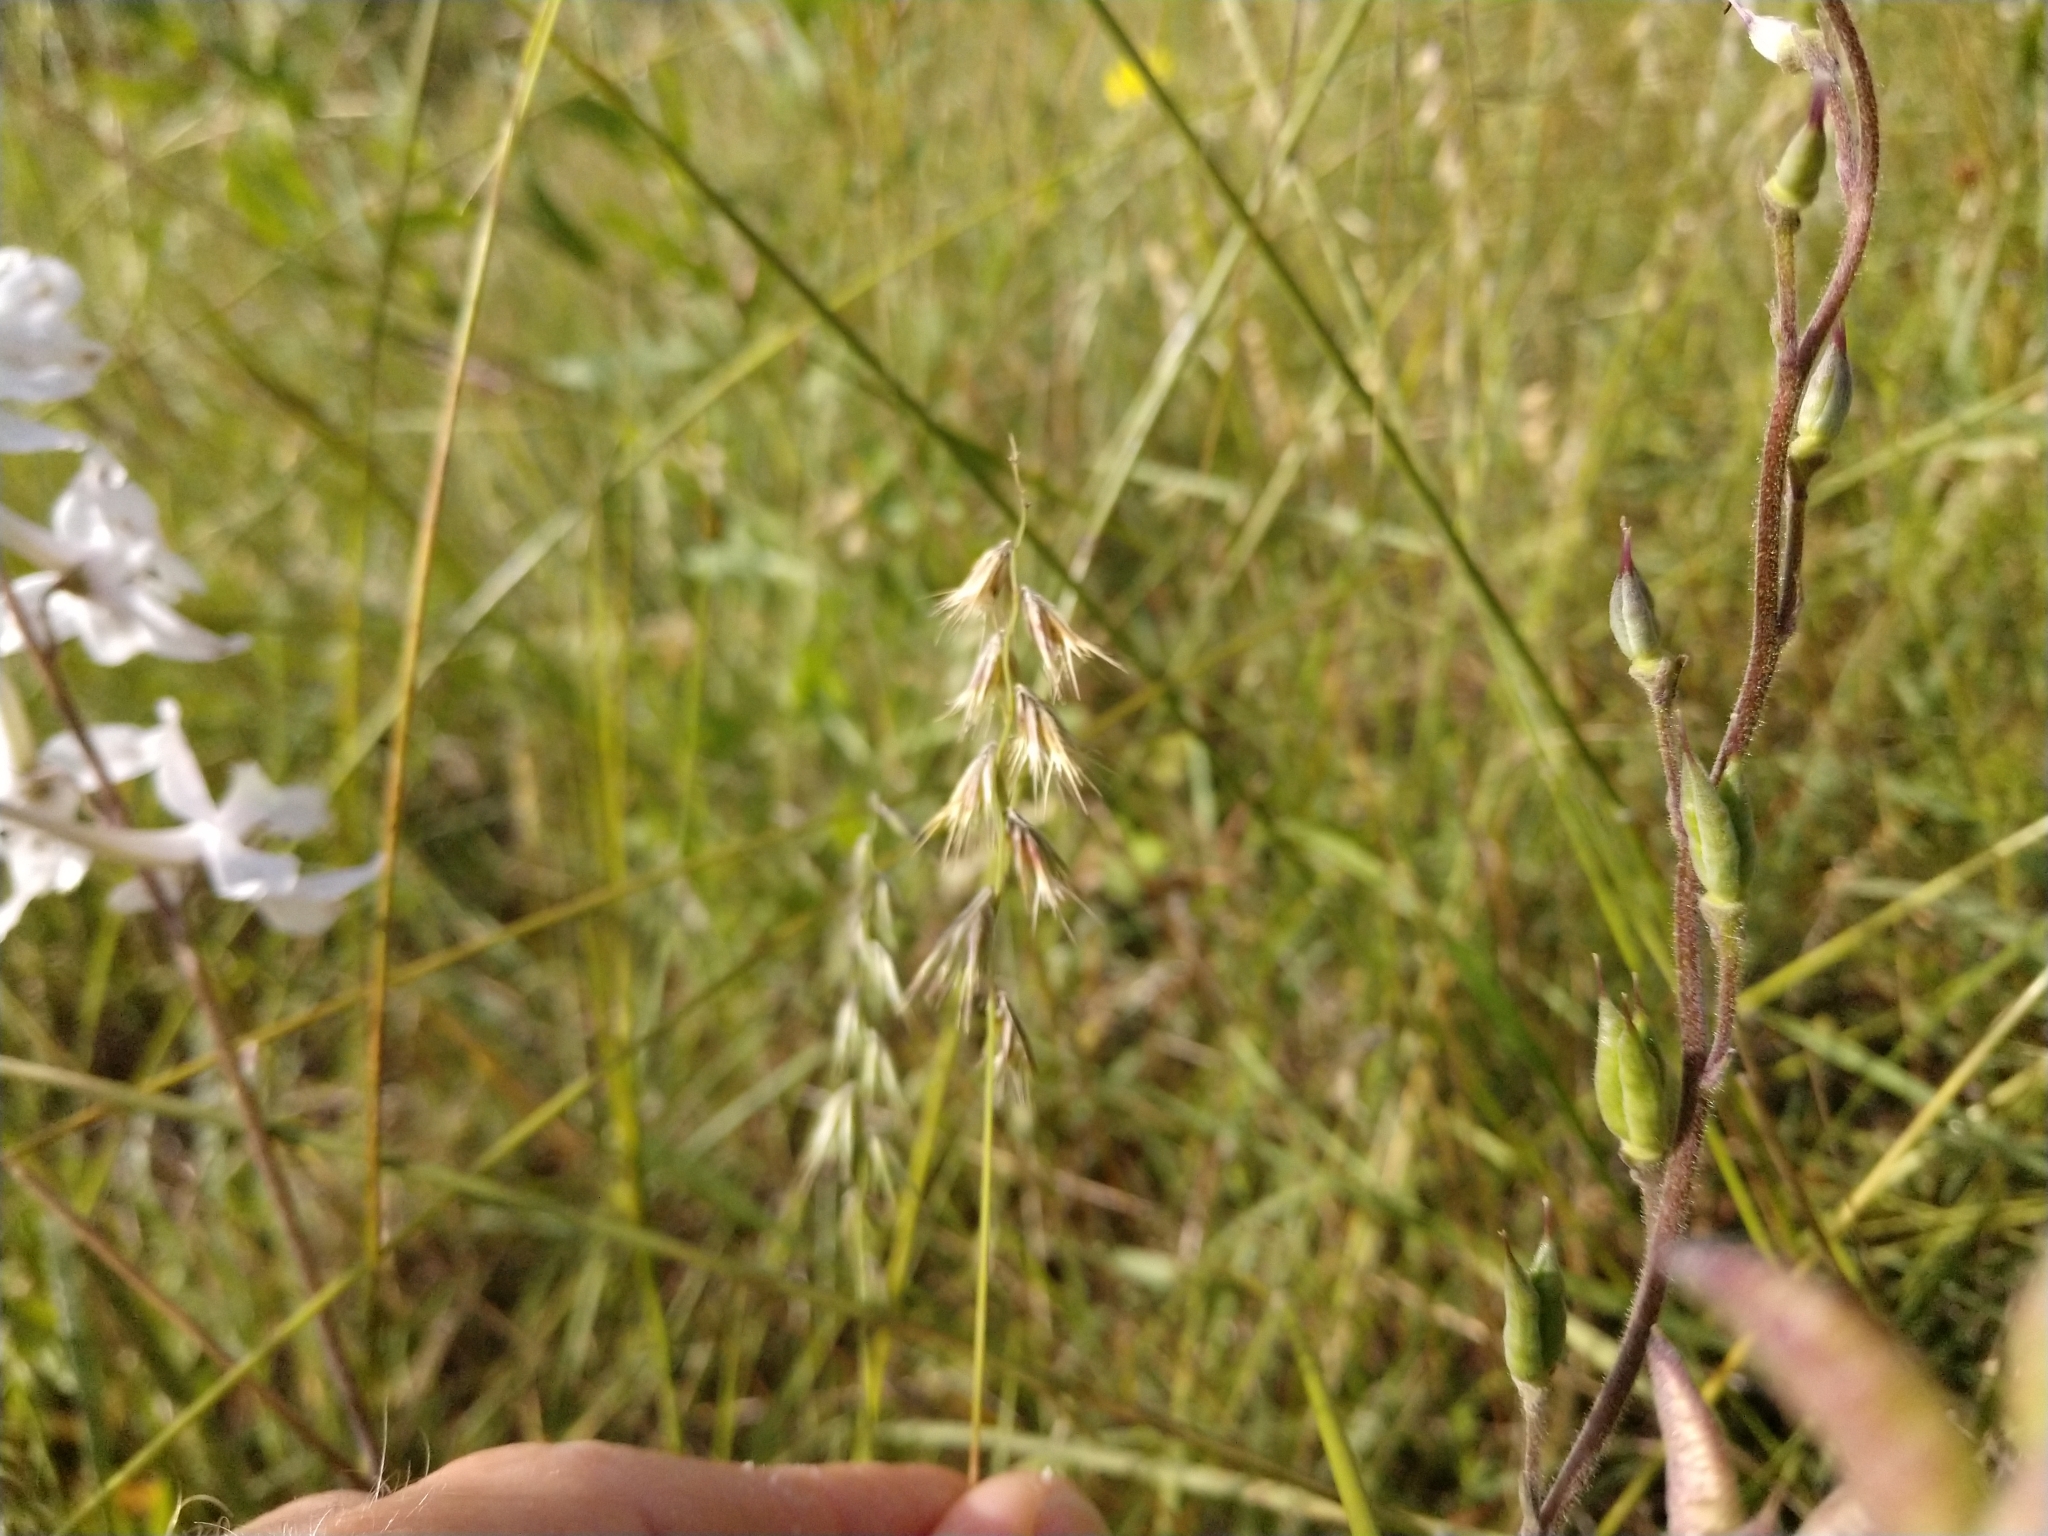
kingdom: Plantae
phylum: Tracheophyta
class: Liliopsida
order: Poales
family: Poaceae
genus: Bouteloua
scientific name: Bouteloua rigidiseta
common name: Texas grama
